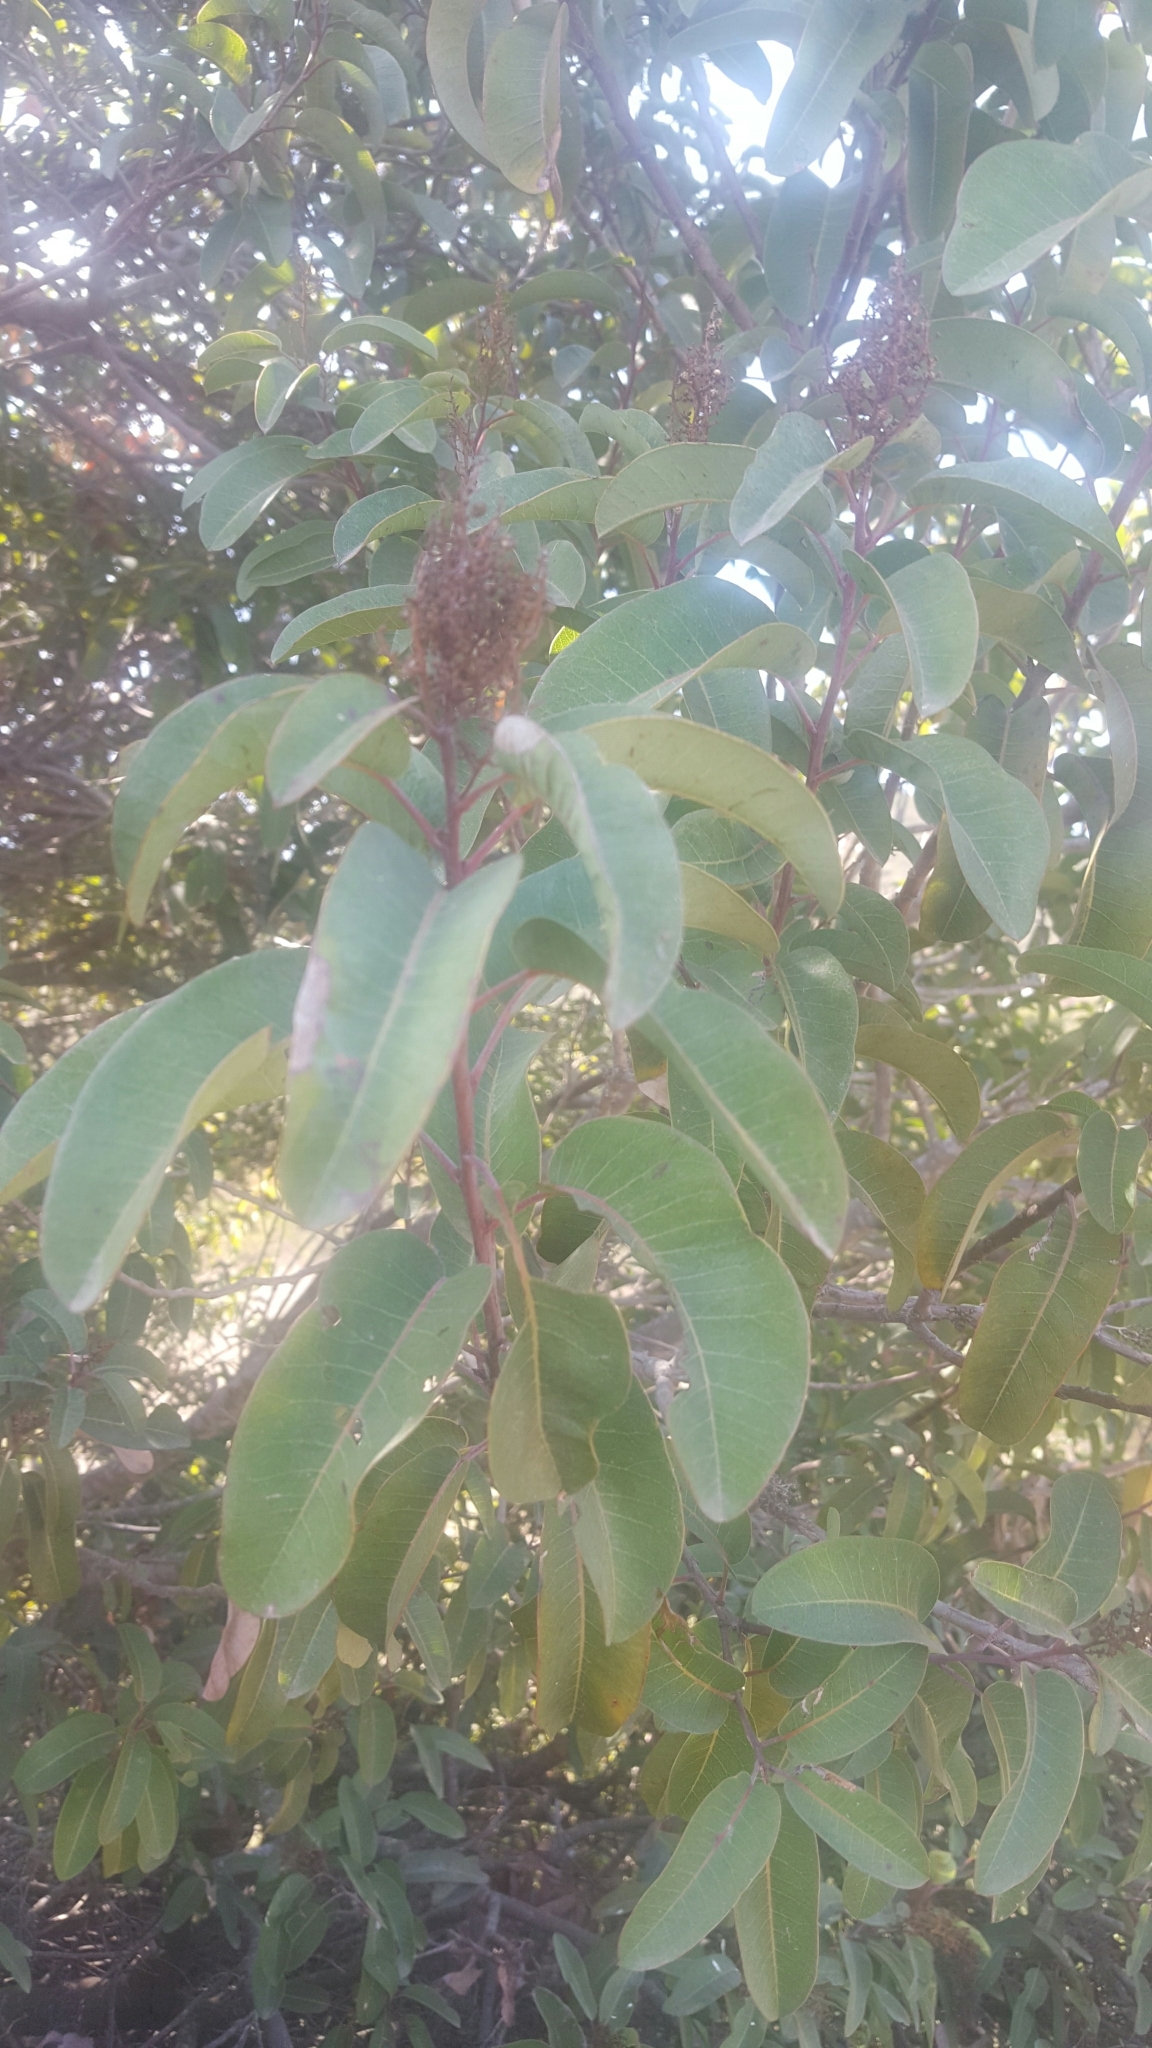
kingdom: Plantae
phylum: Tracheophyta
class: Magnoliopsida
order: Sapindales
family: Anacardiaceae
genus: Malosma
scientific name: Malosma laurina
